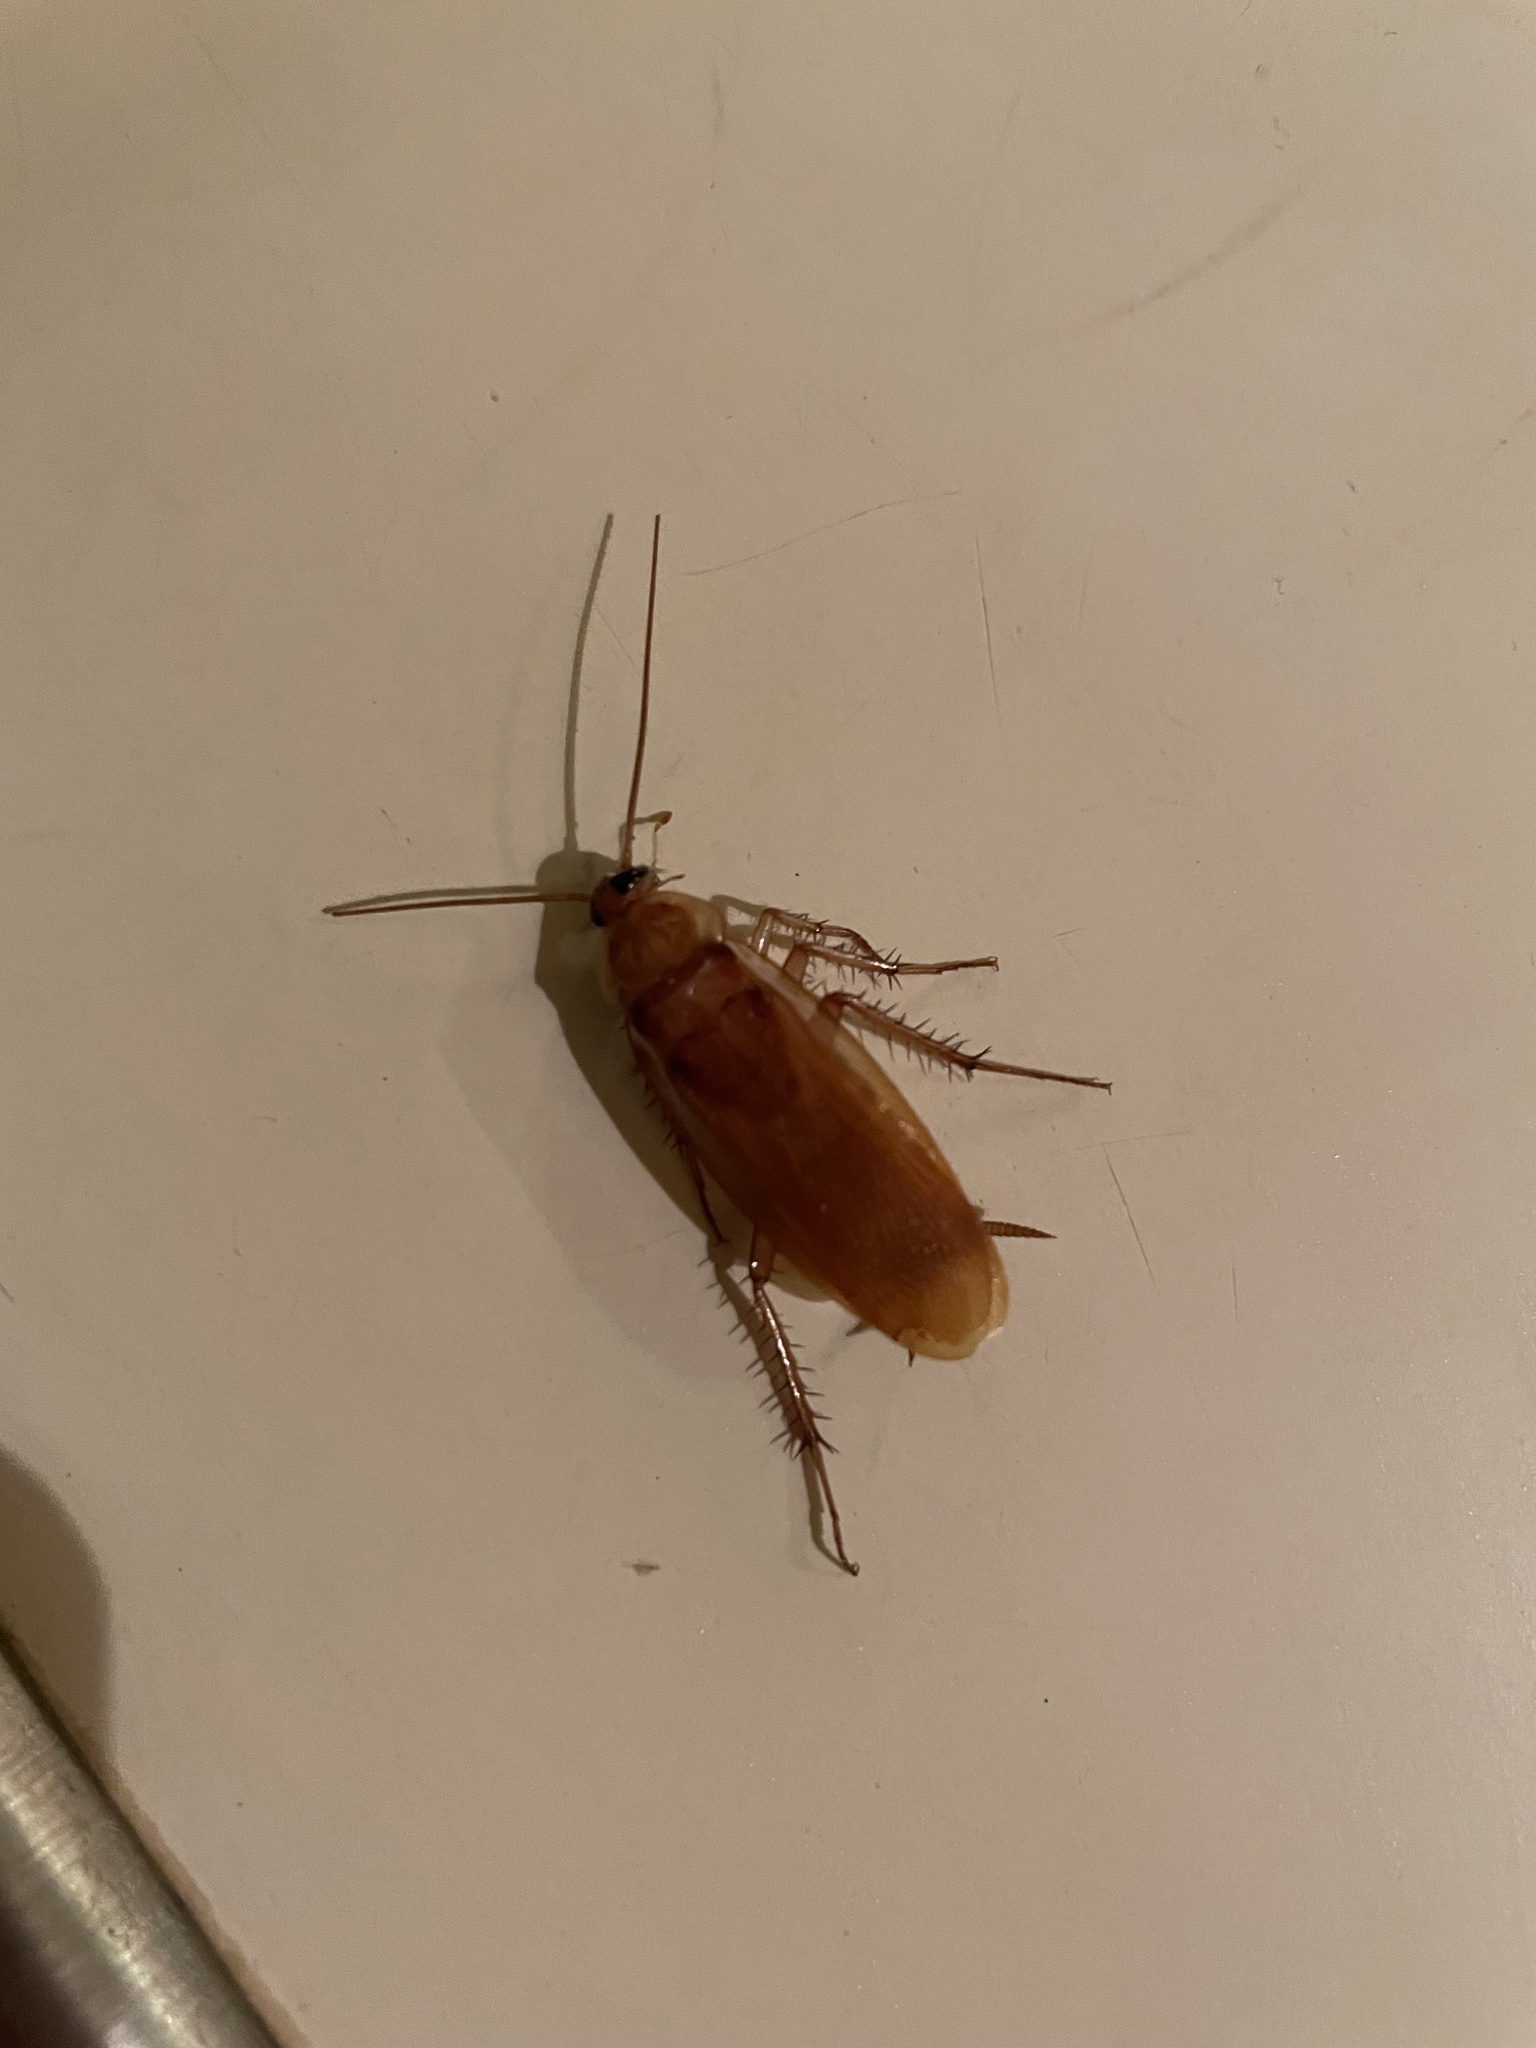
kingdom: Animalia
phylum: Arthropoda
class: Insecta
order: Blattodea
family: Blattidae
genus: Periplaneta
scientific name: Periplaneta lateralis
